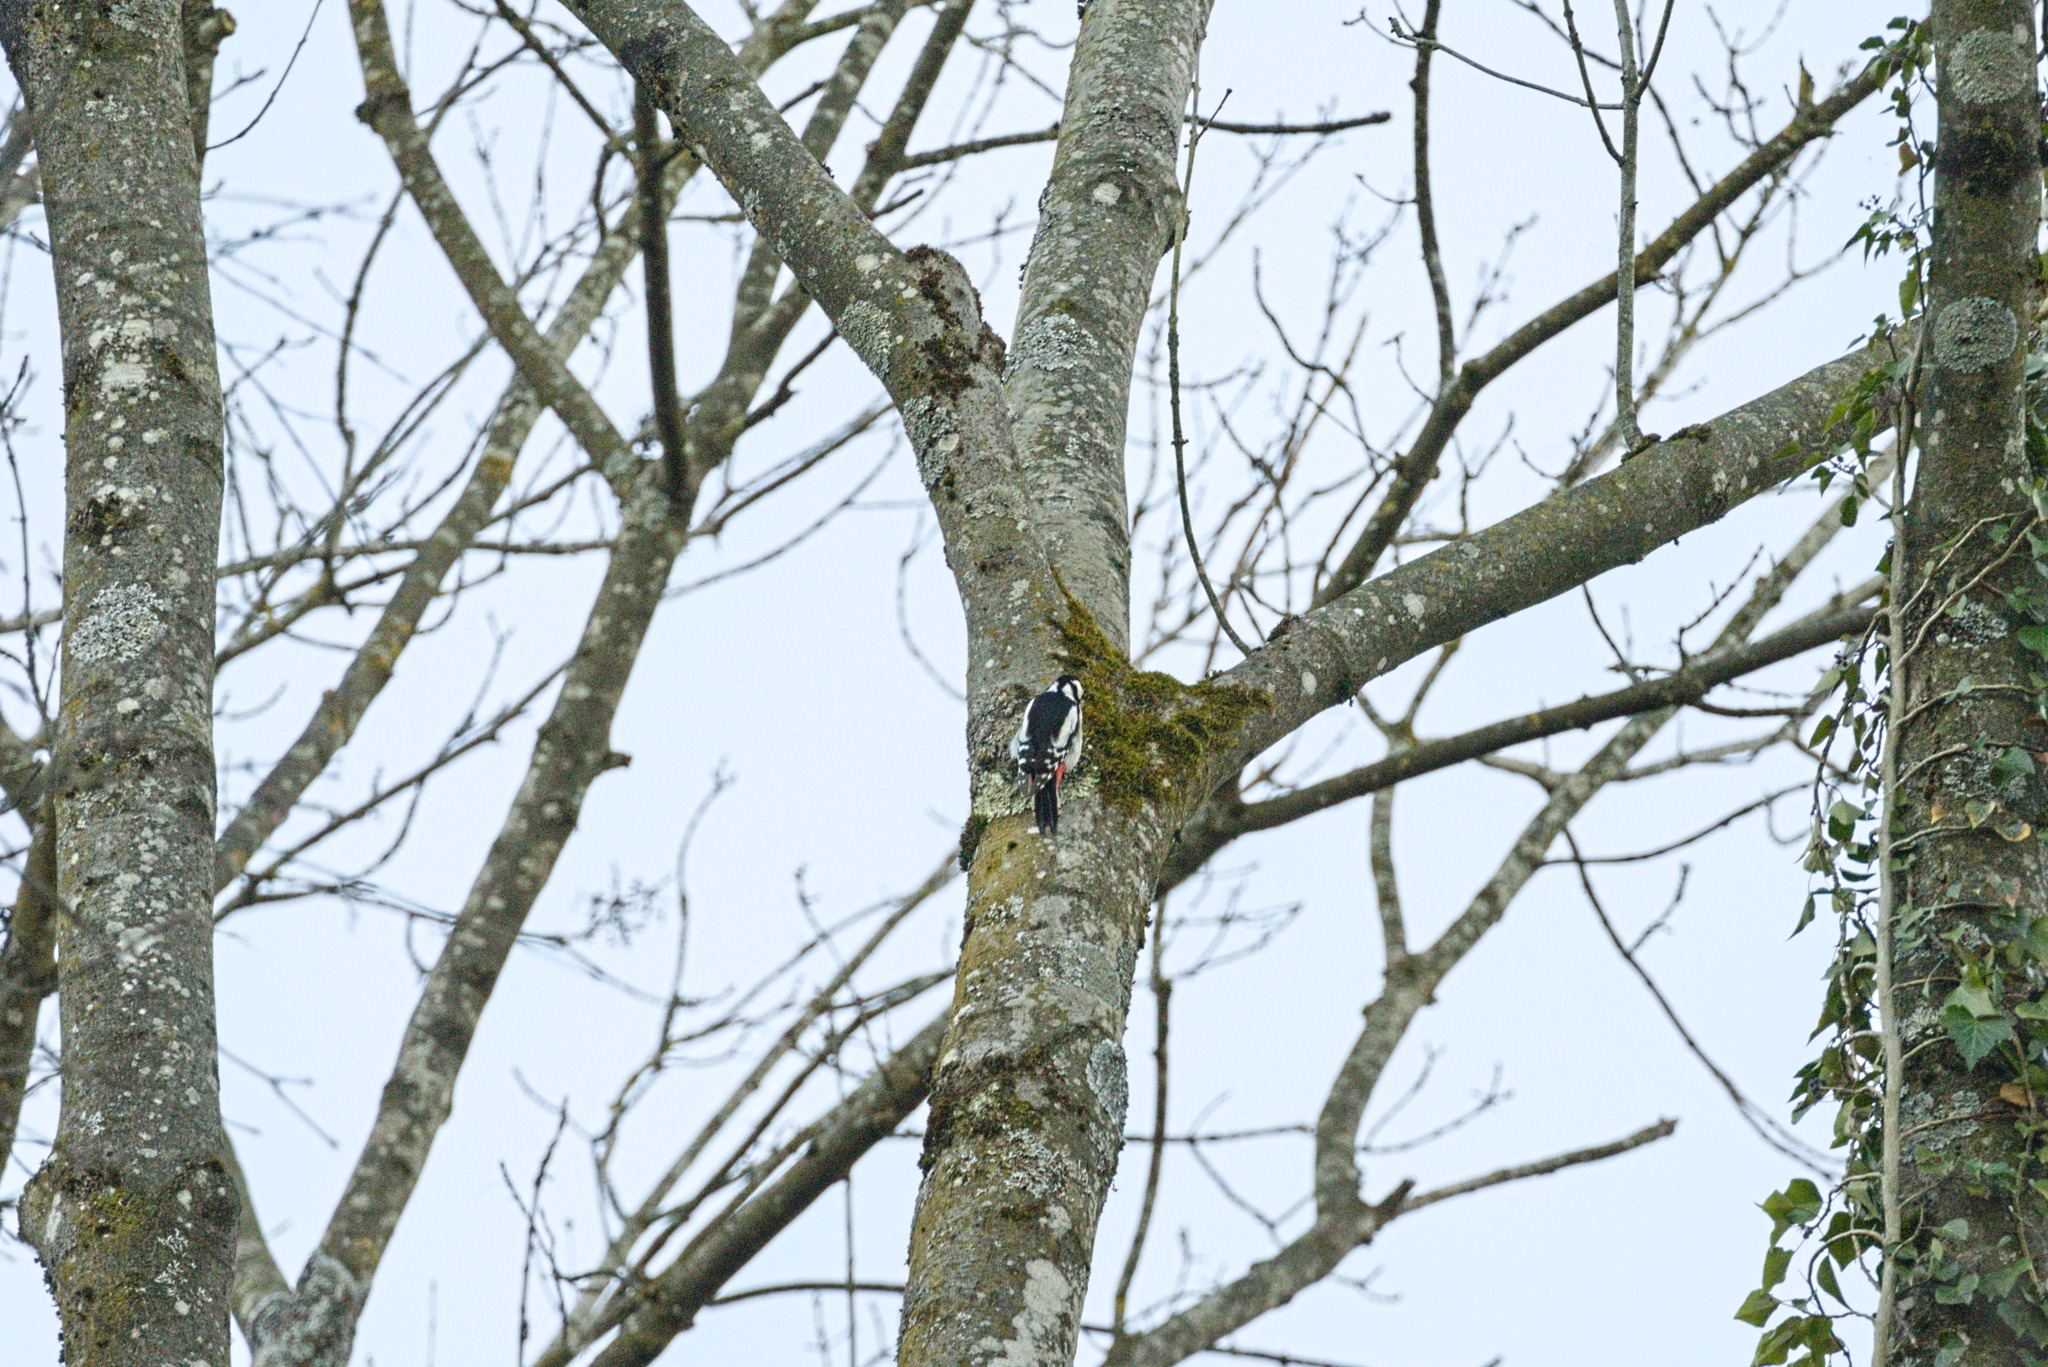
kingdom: Animalia
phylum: Chordata
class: Aves
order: Piciformes
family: Picidae
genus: Dendrocopos
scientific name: Dendrocopos major
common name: Great spotted woodpecker
